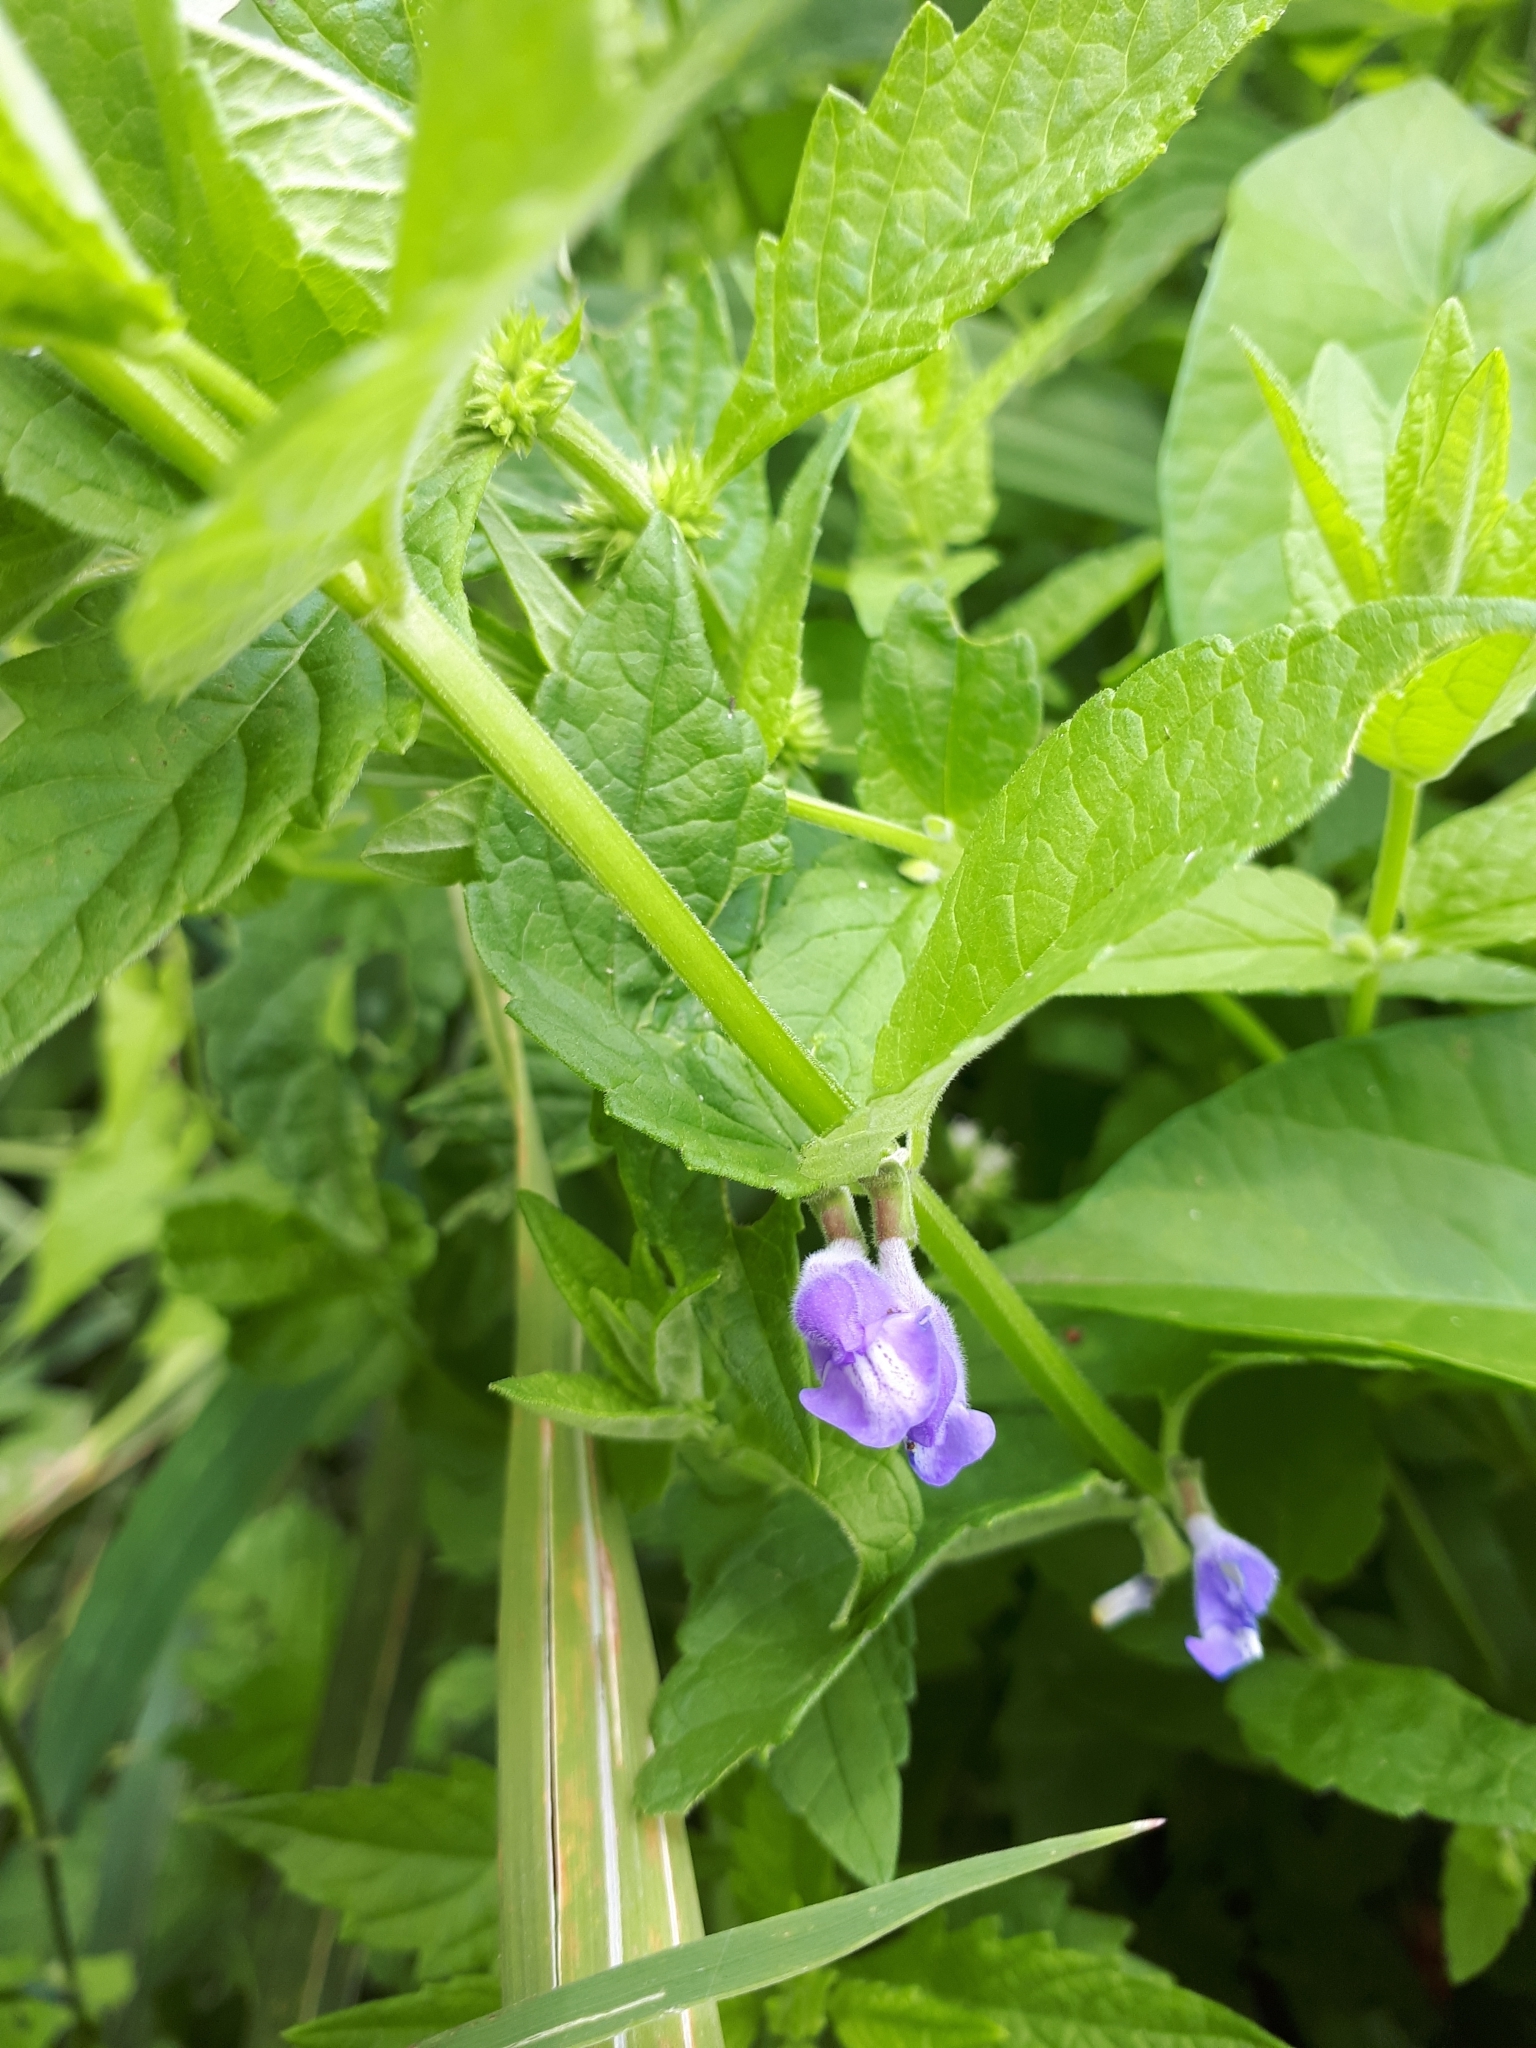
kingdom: Plantae
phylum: Tracheophyta
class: Magnoliopsida
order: Lamiales
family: Lamiaceae
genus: Scutellaria
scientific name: Scutellaria galericulata
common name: Skullcap
